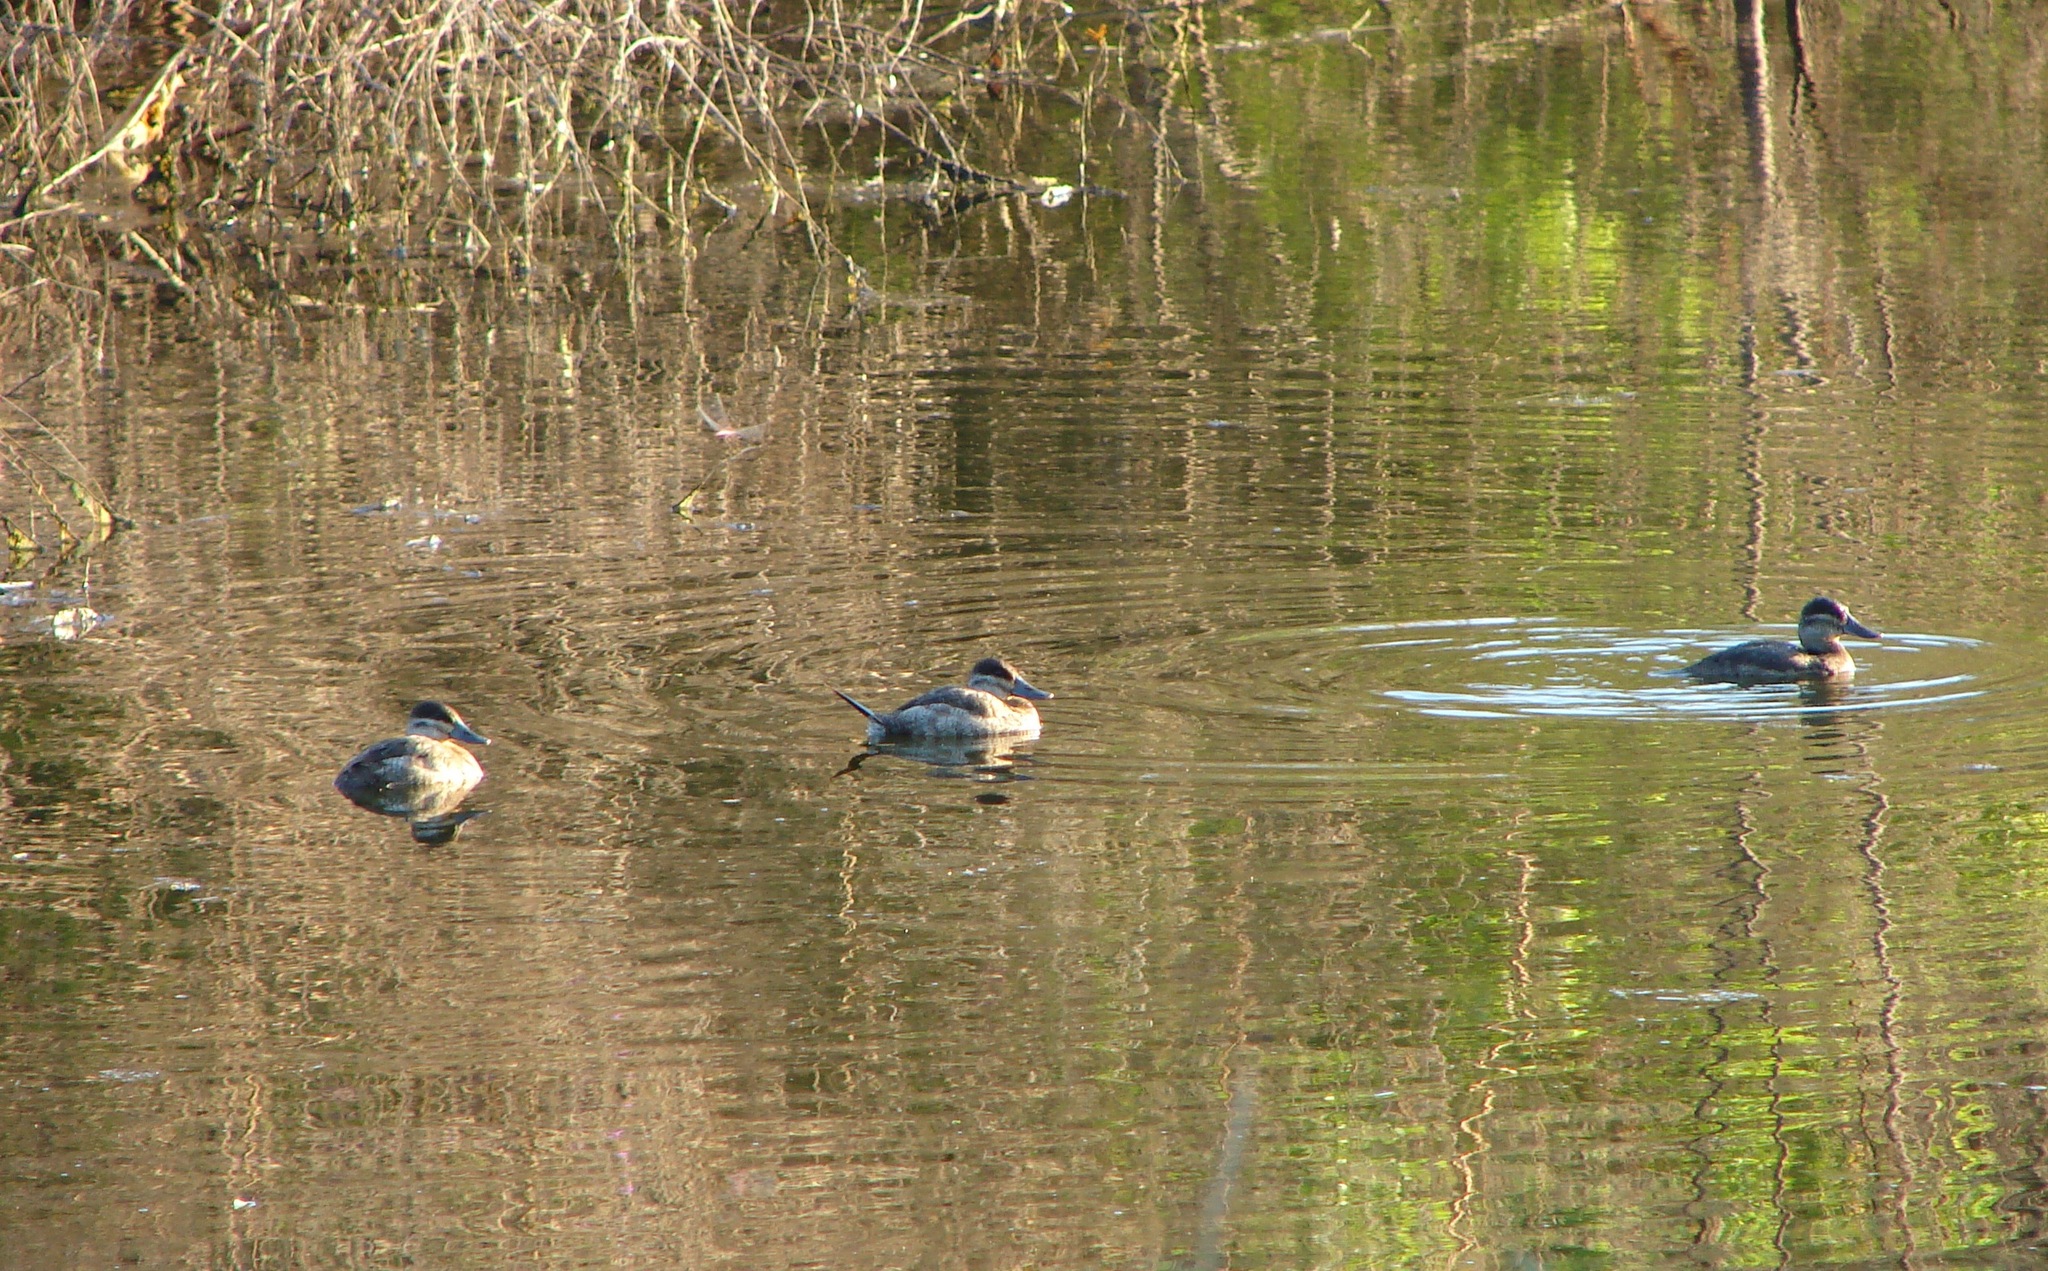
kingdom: Animalia
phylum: Chordata
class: Aves
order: Anseriformes
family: Anatidae
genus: Oxyura
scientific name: Oxyura jamaicensis
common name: Ruddy duck
